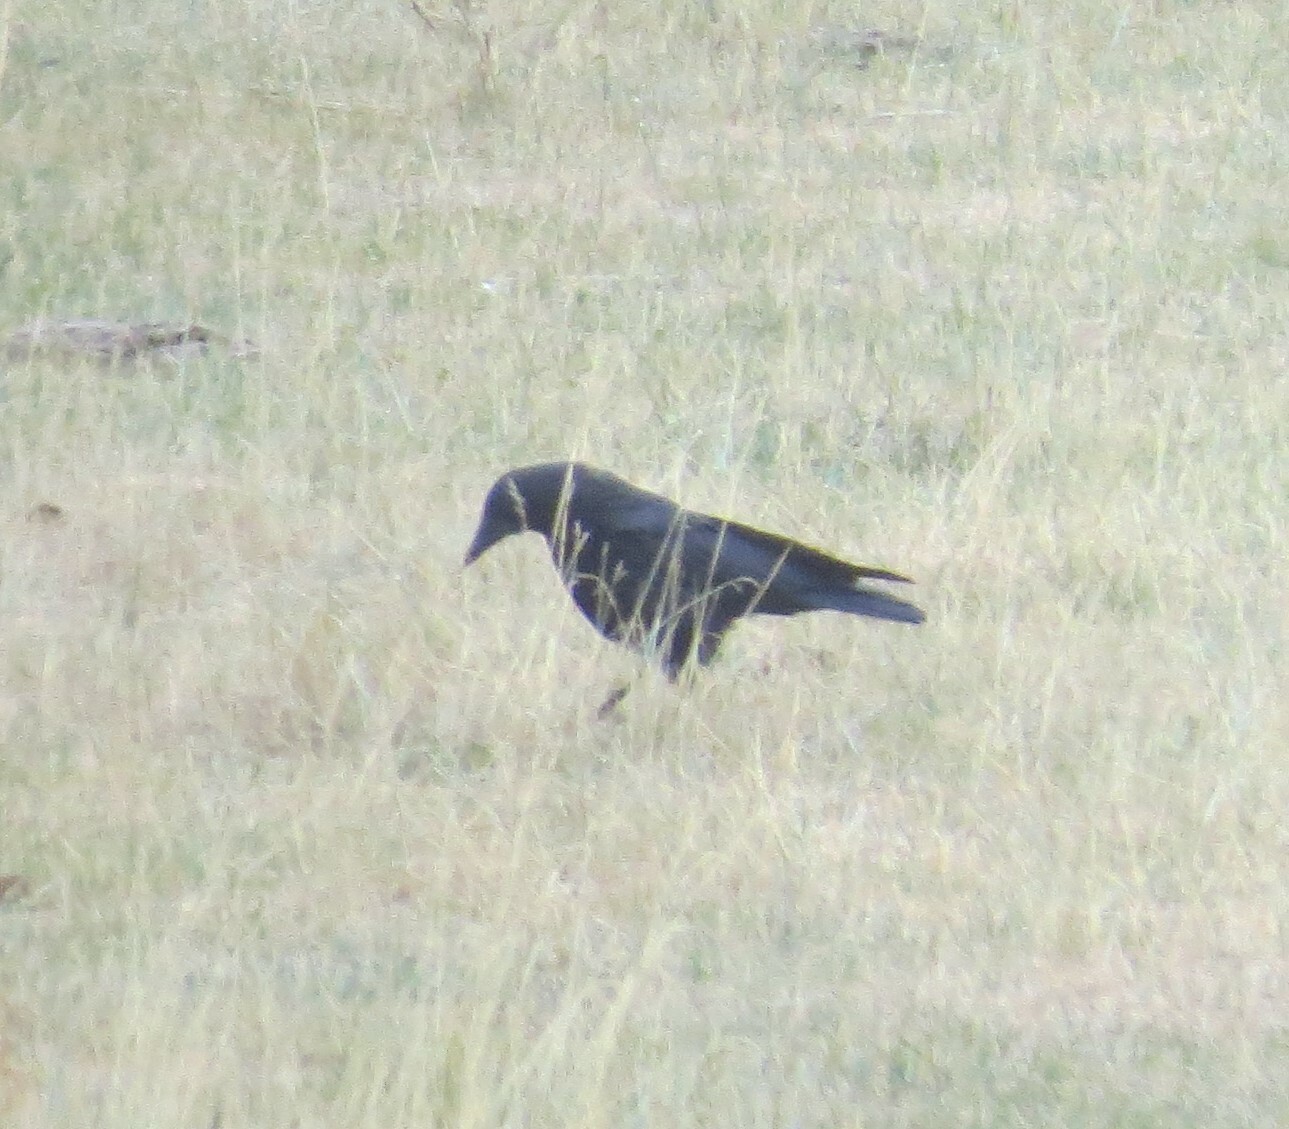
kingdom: Animalia
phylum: Chordata
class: Aves
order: Passeriformes
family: Corvidae
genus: Corvus
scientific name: Corvus brachyrhynchos
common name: American crow
